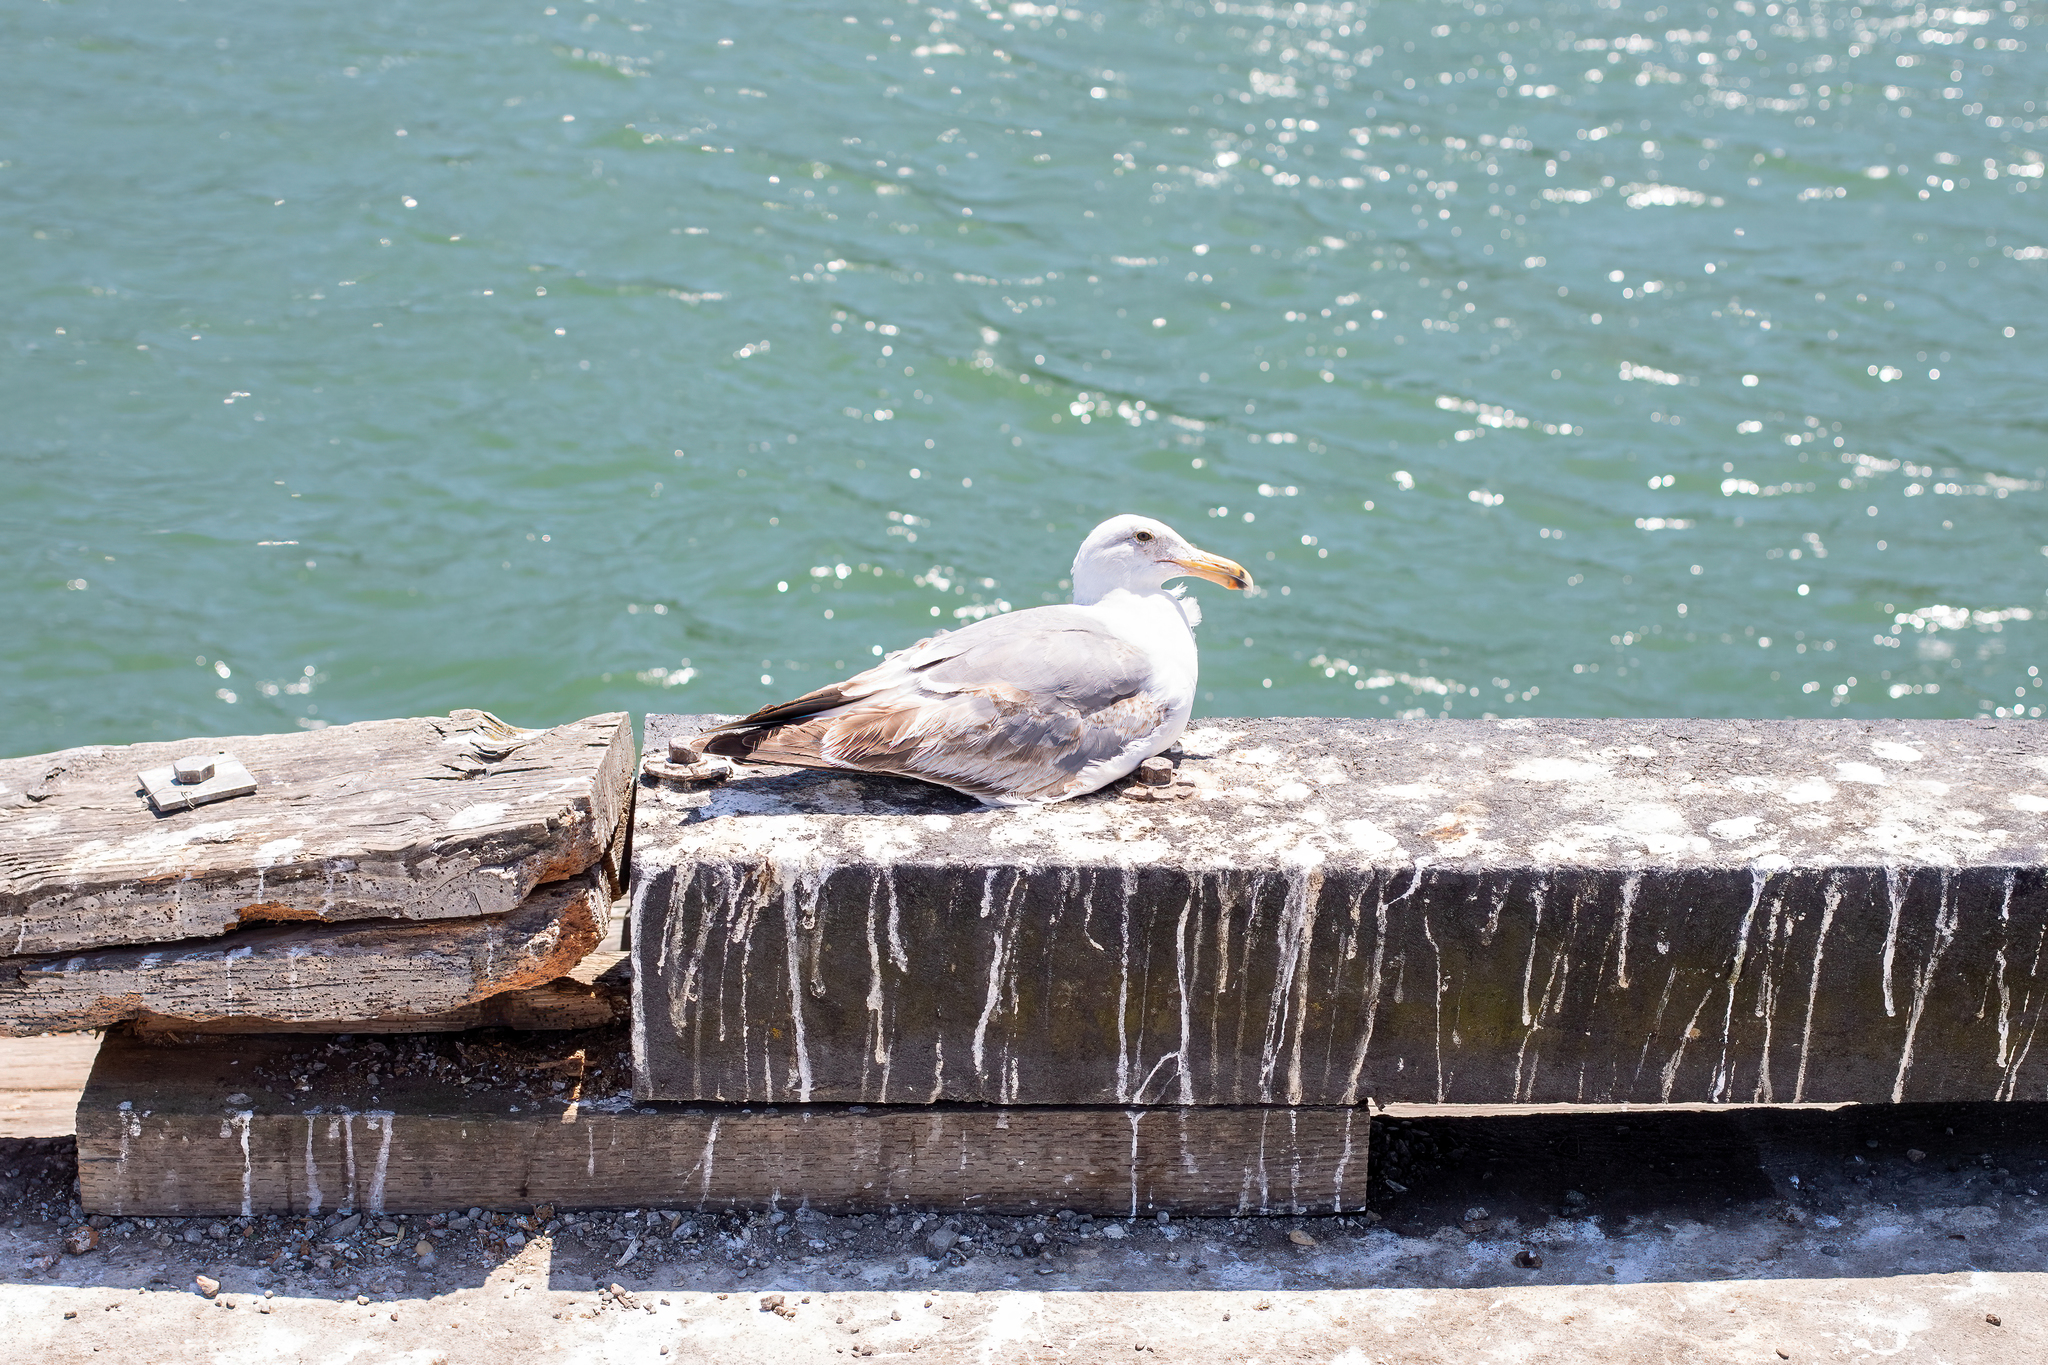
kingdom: Animalia
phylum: Chordata
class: Aves
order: Charadriiformes
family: Laridae
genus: Larus
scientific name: Larus occidentalis
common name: Western gull
